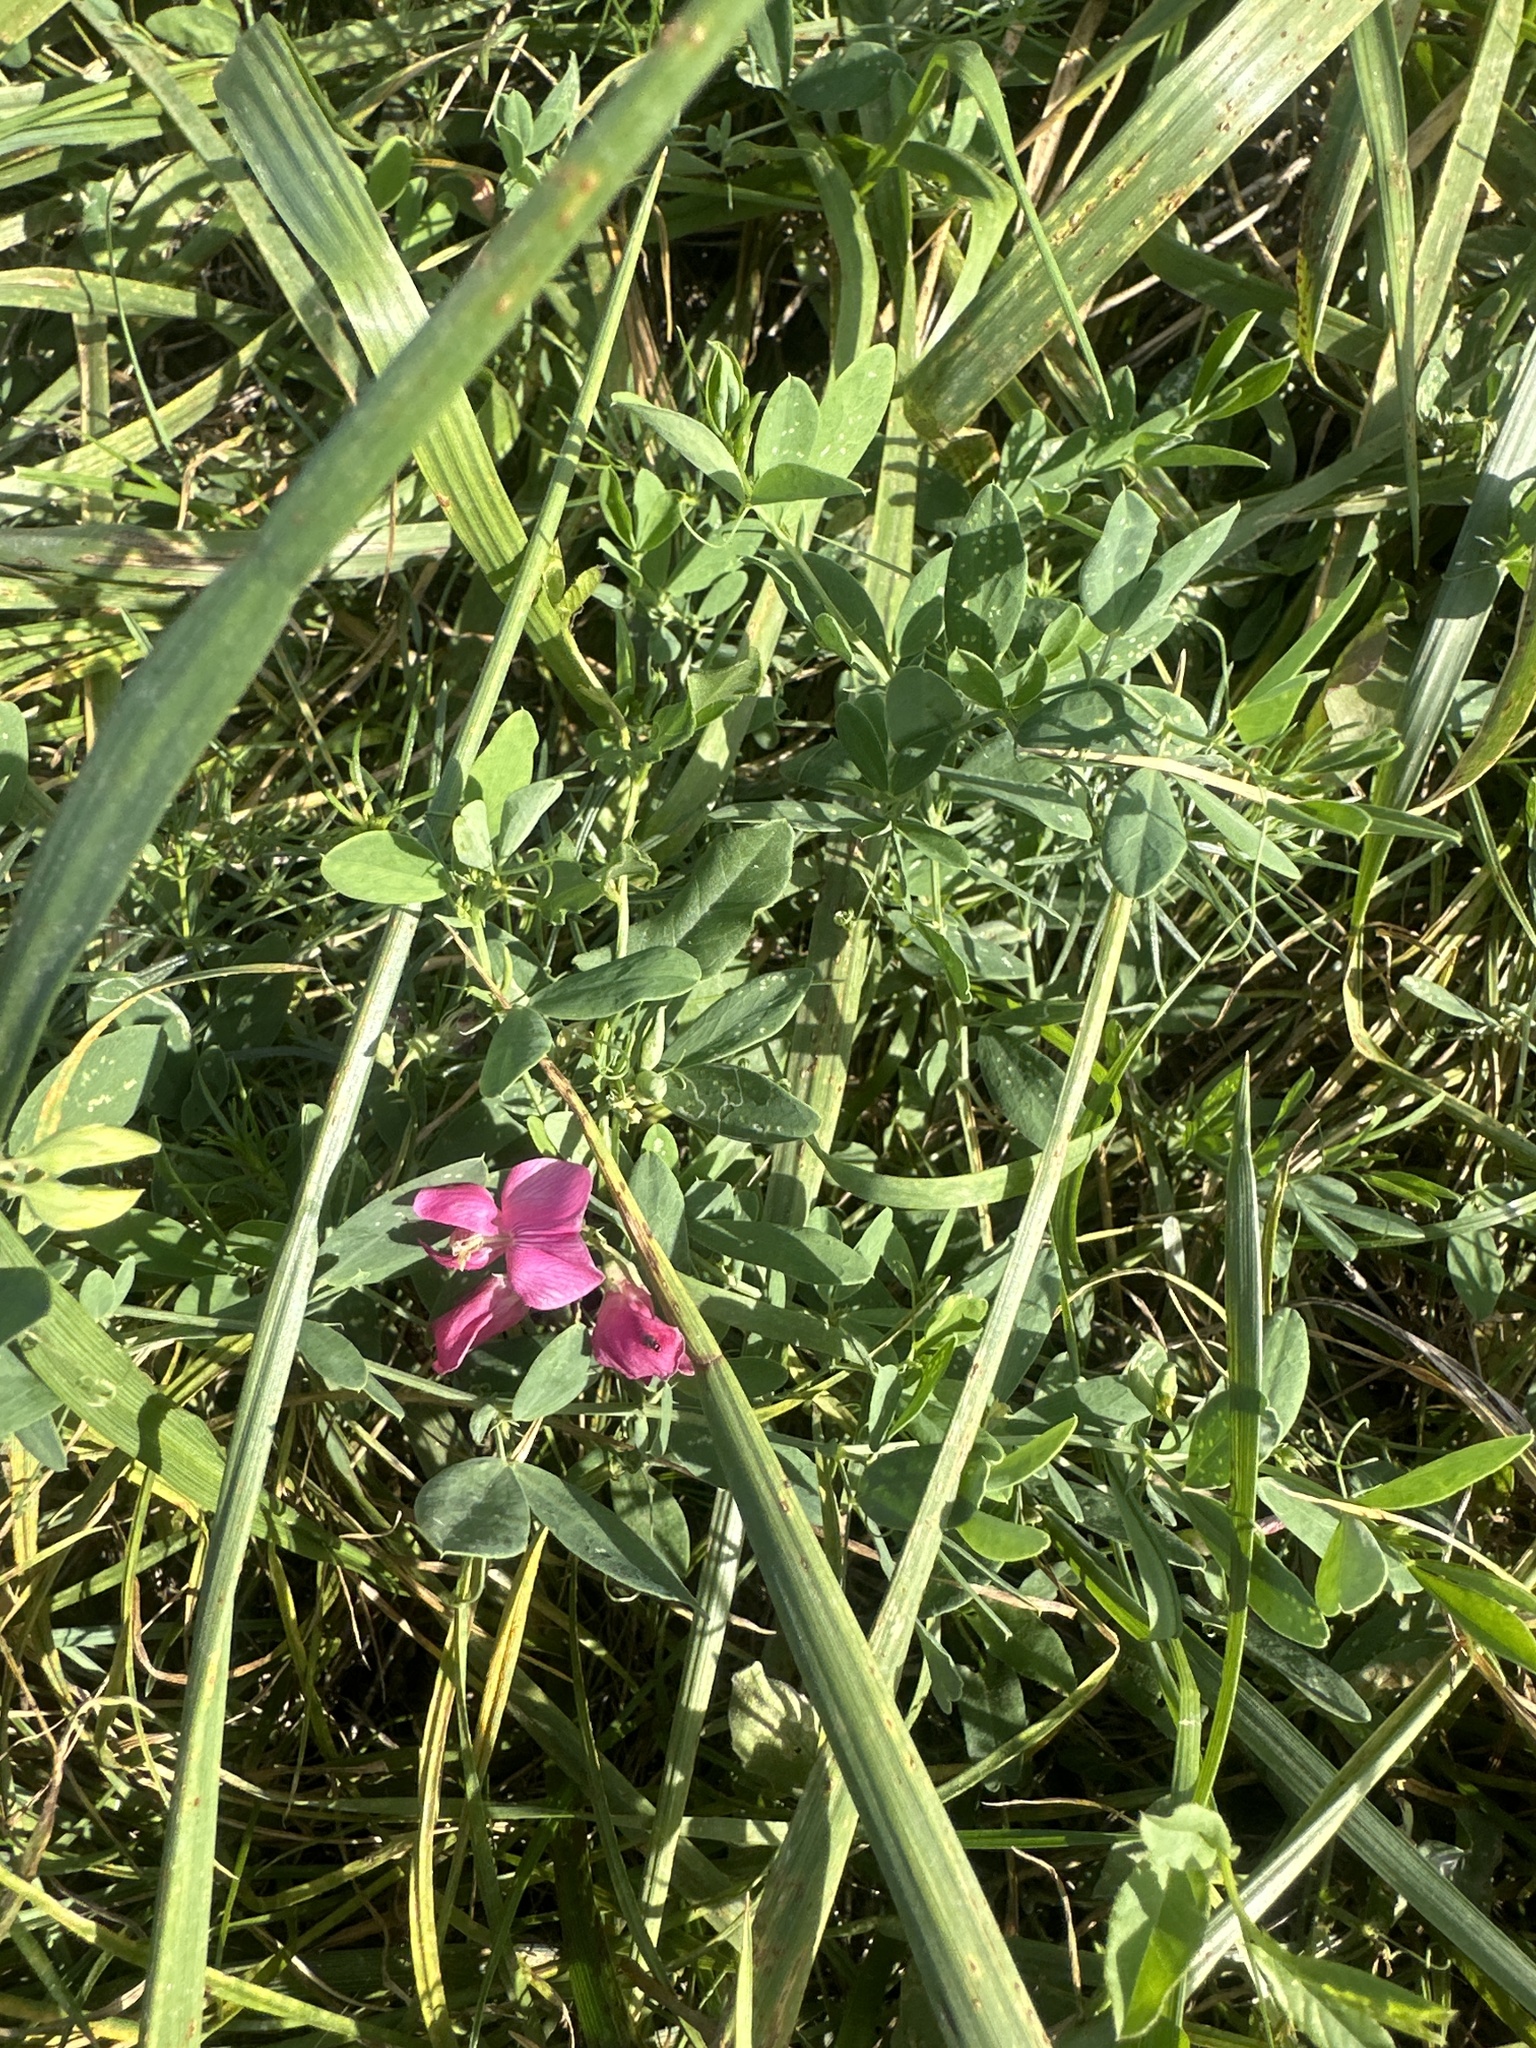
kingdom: Plantae
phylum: Tracheophyta
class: Magnoliopsida
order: Fabales
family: Fabaceae
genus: Lathyrus
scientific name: Lathyrus tuberosus
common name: Tuberous pea
